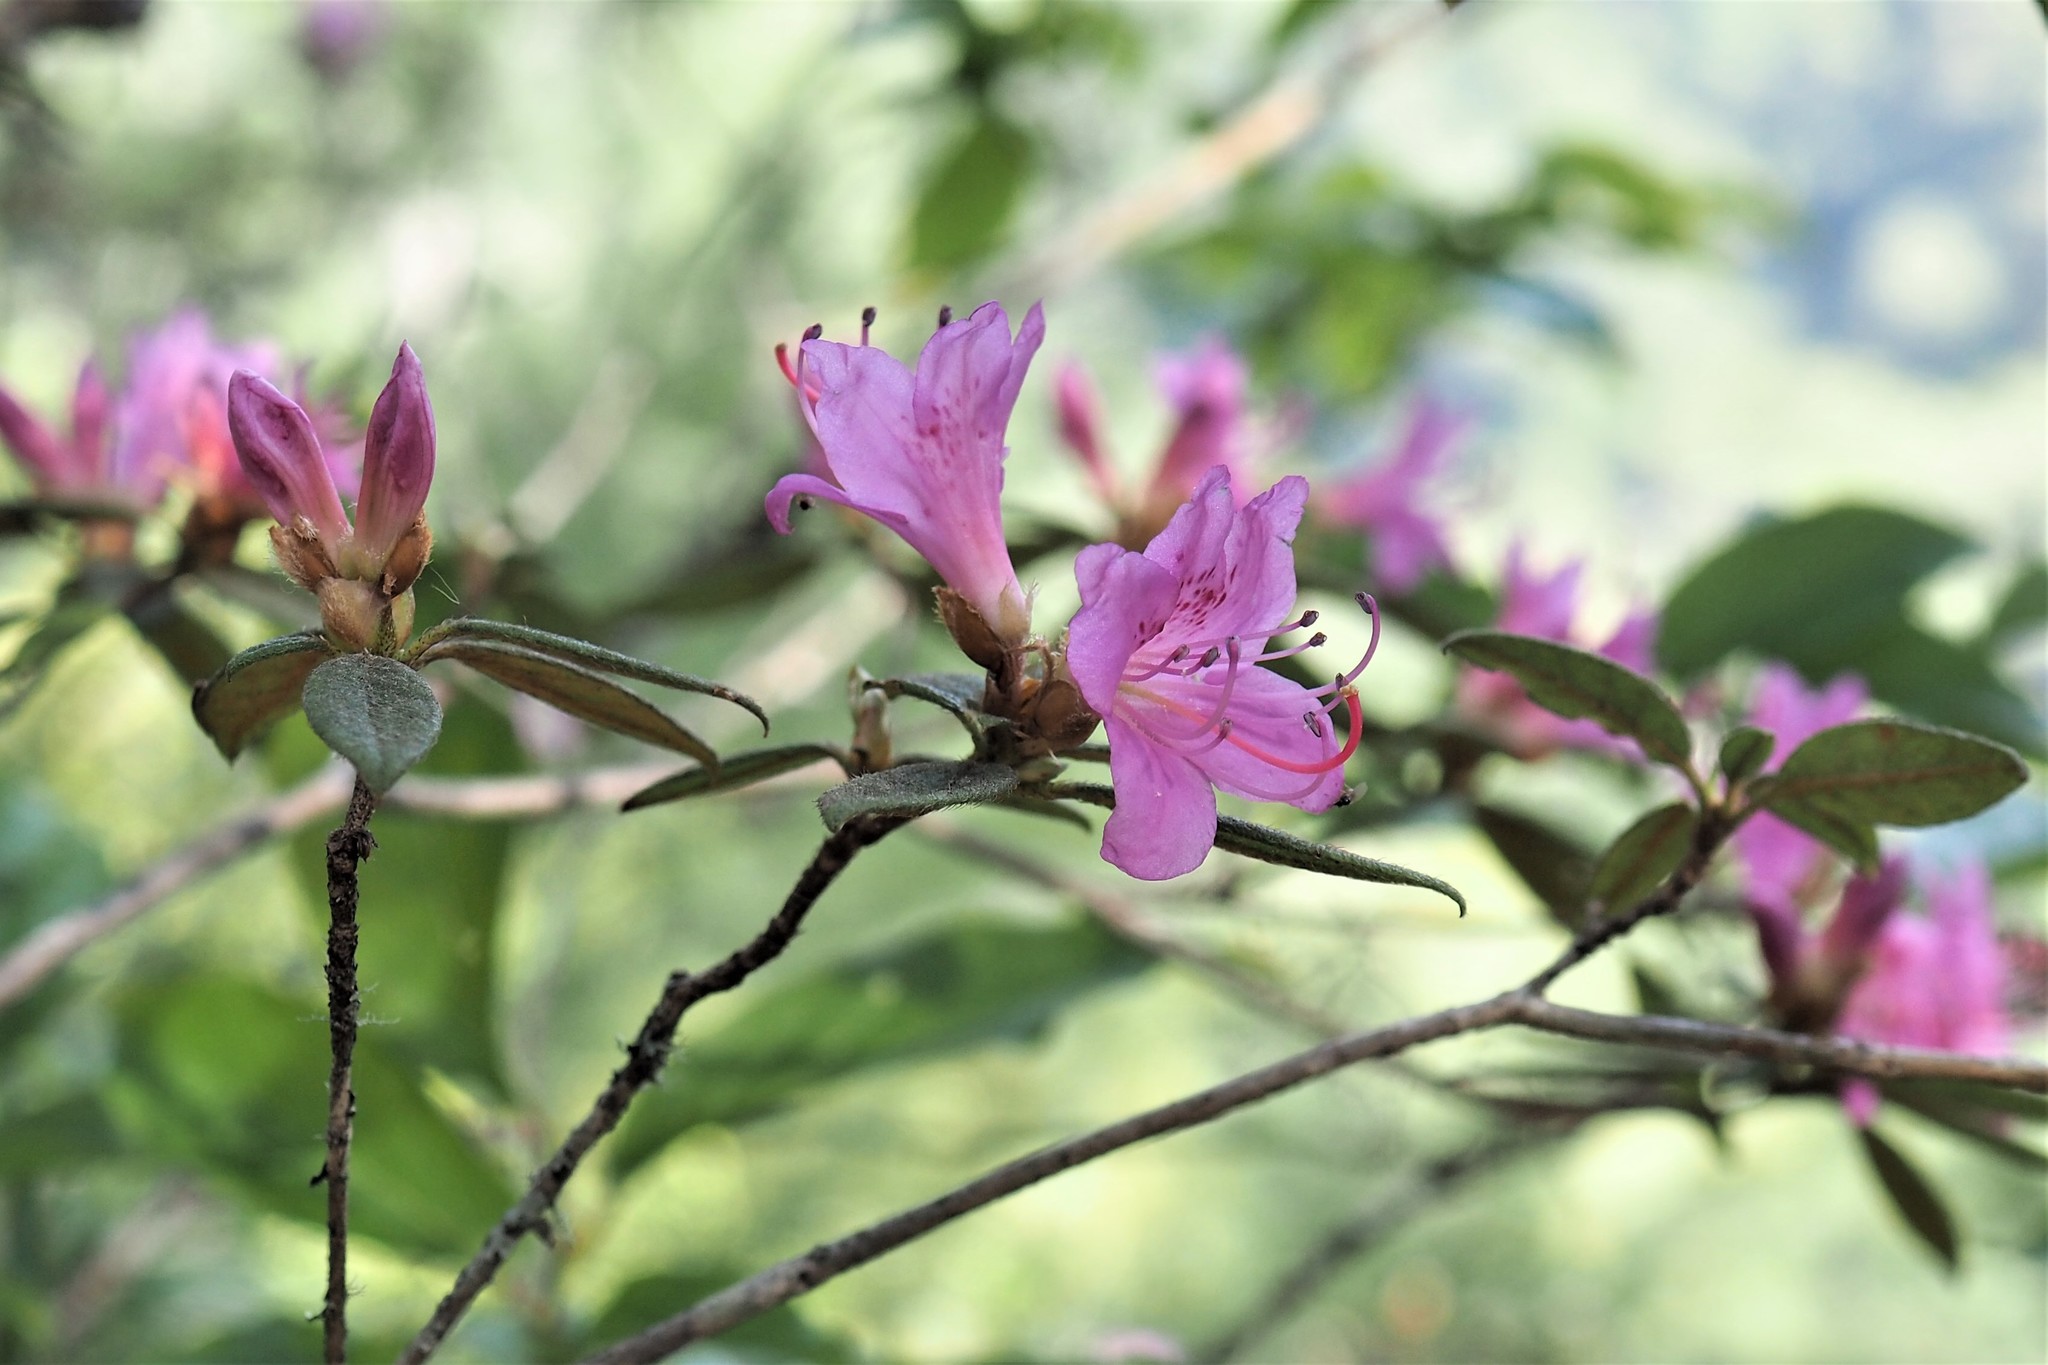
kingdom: Plantae
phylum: Tracheophyta
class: Magnoliopsida
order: Ericales
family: Ericaceae
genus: Rhododendron
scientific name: Rhododendron rubropilosum
